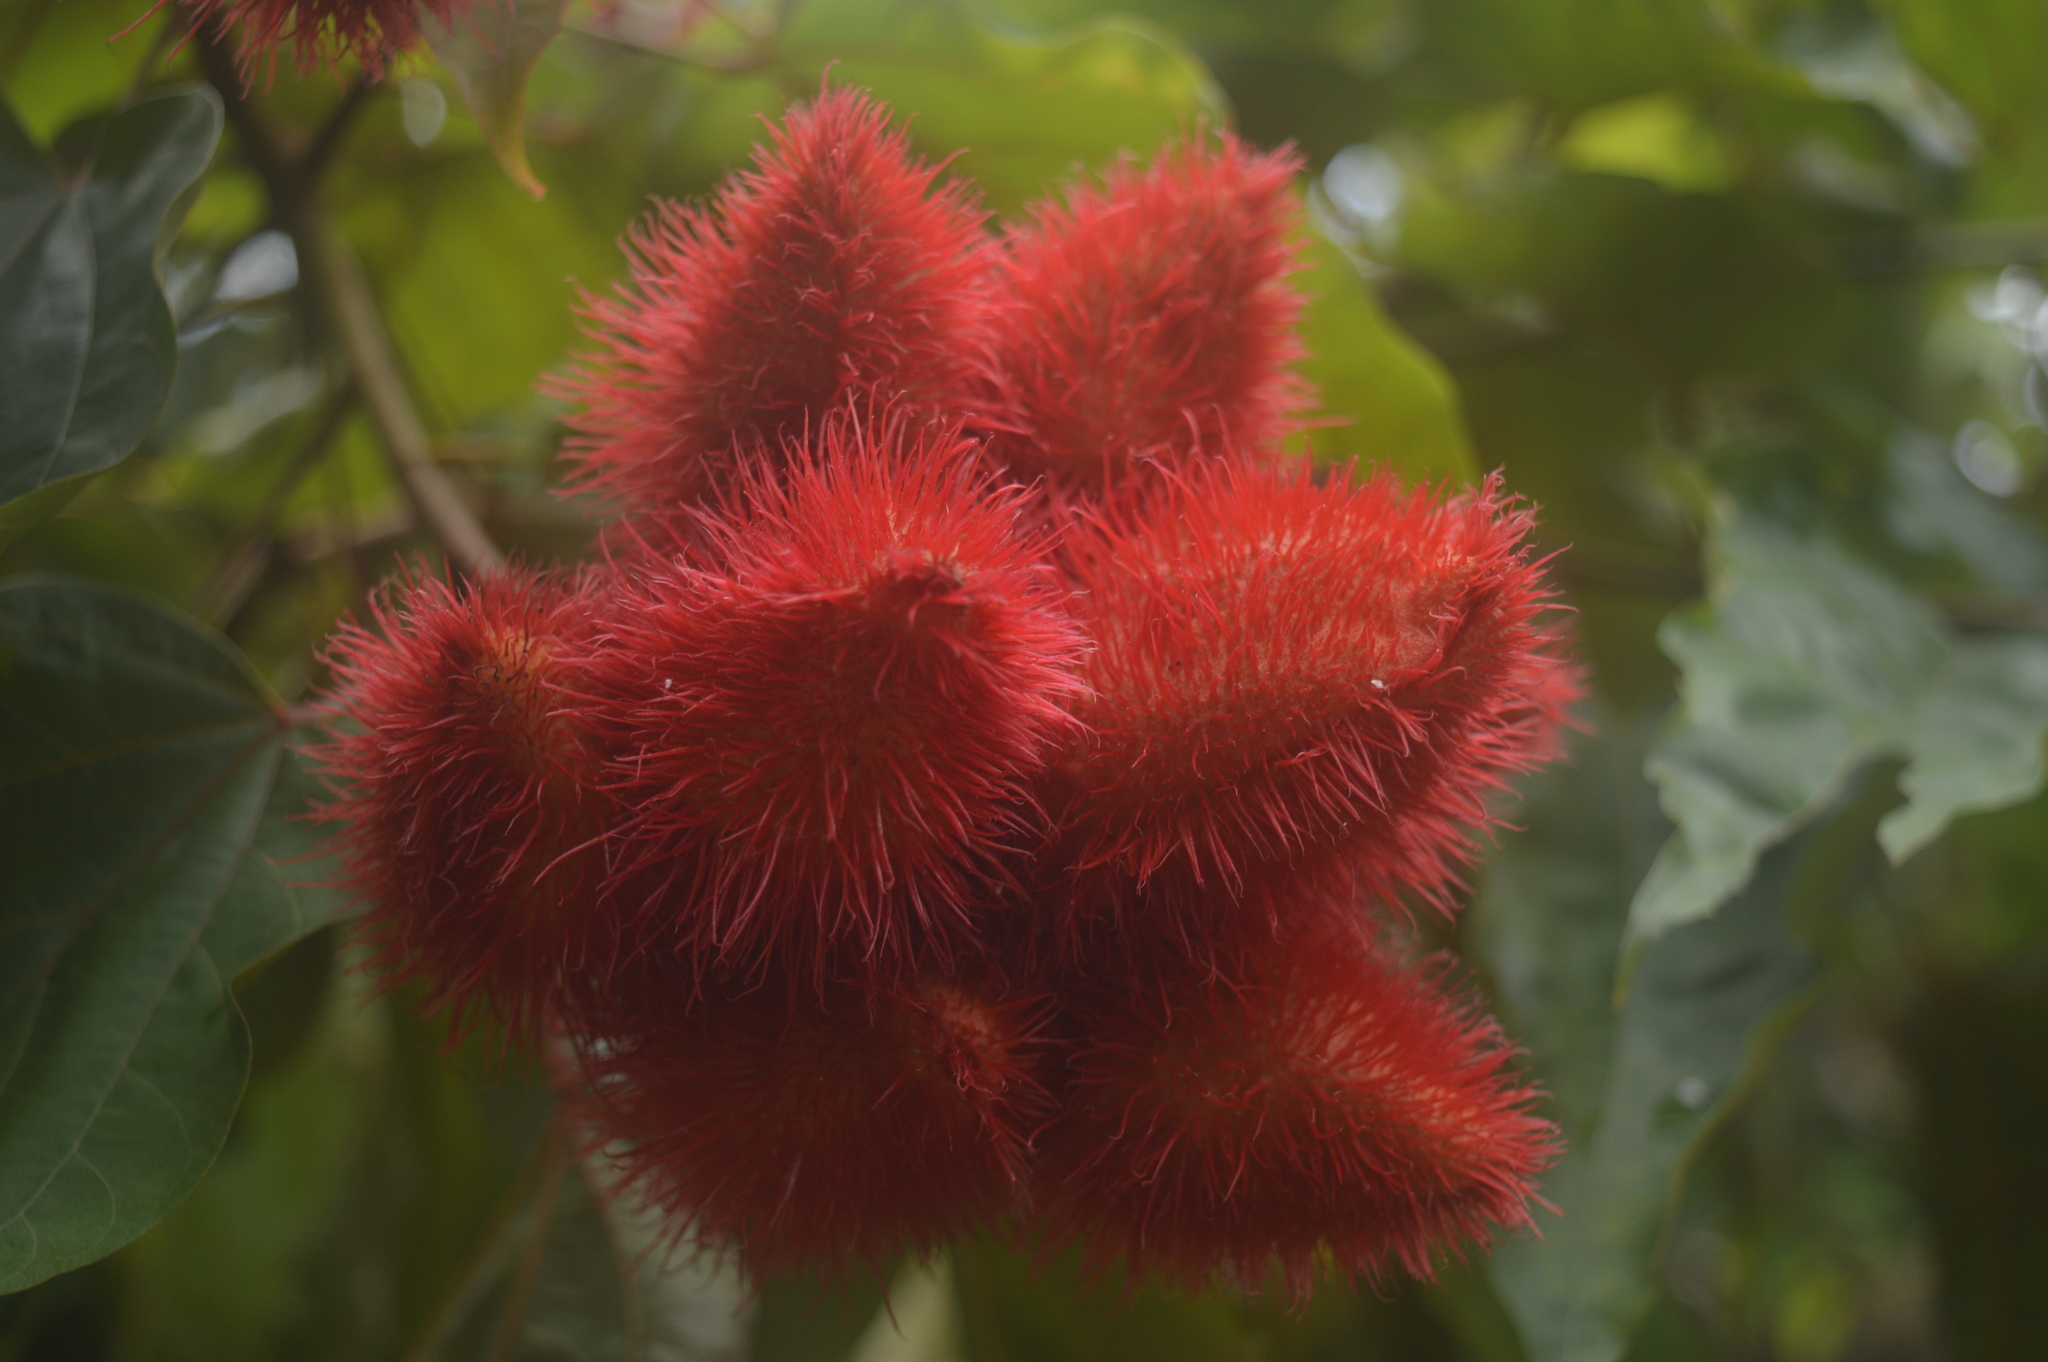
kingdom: Plantae
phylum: Tracheophyta
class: Magnoliopsida
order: Malvales
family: Bixaceae
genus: Bixa
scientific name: Bixa orellana
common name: Lipsticktree
